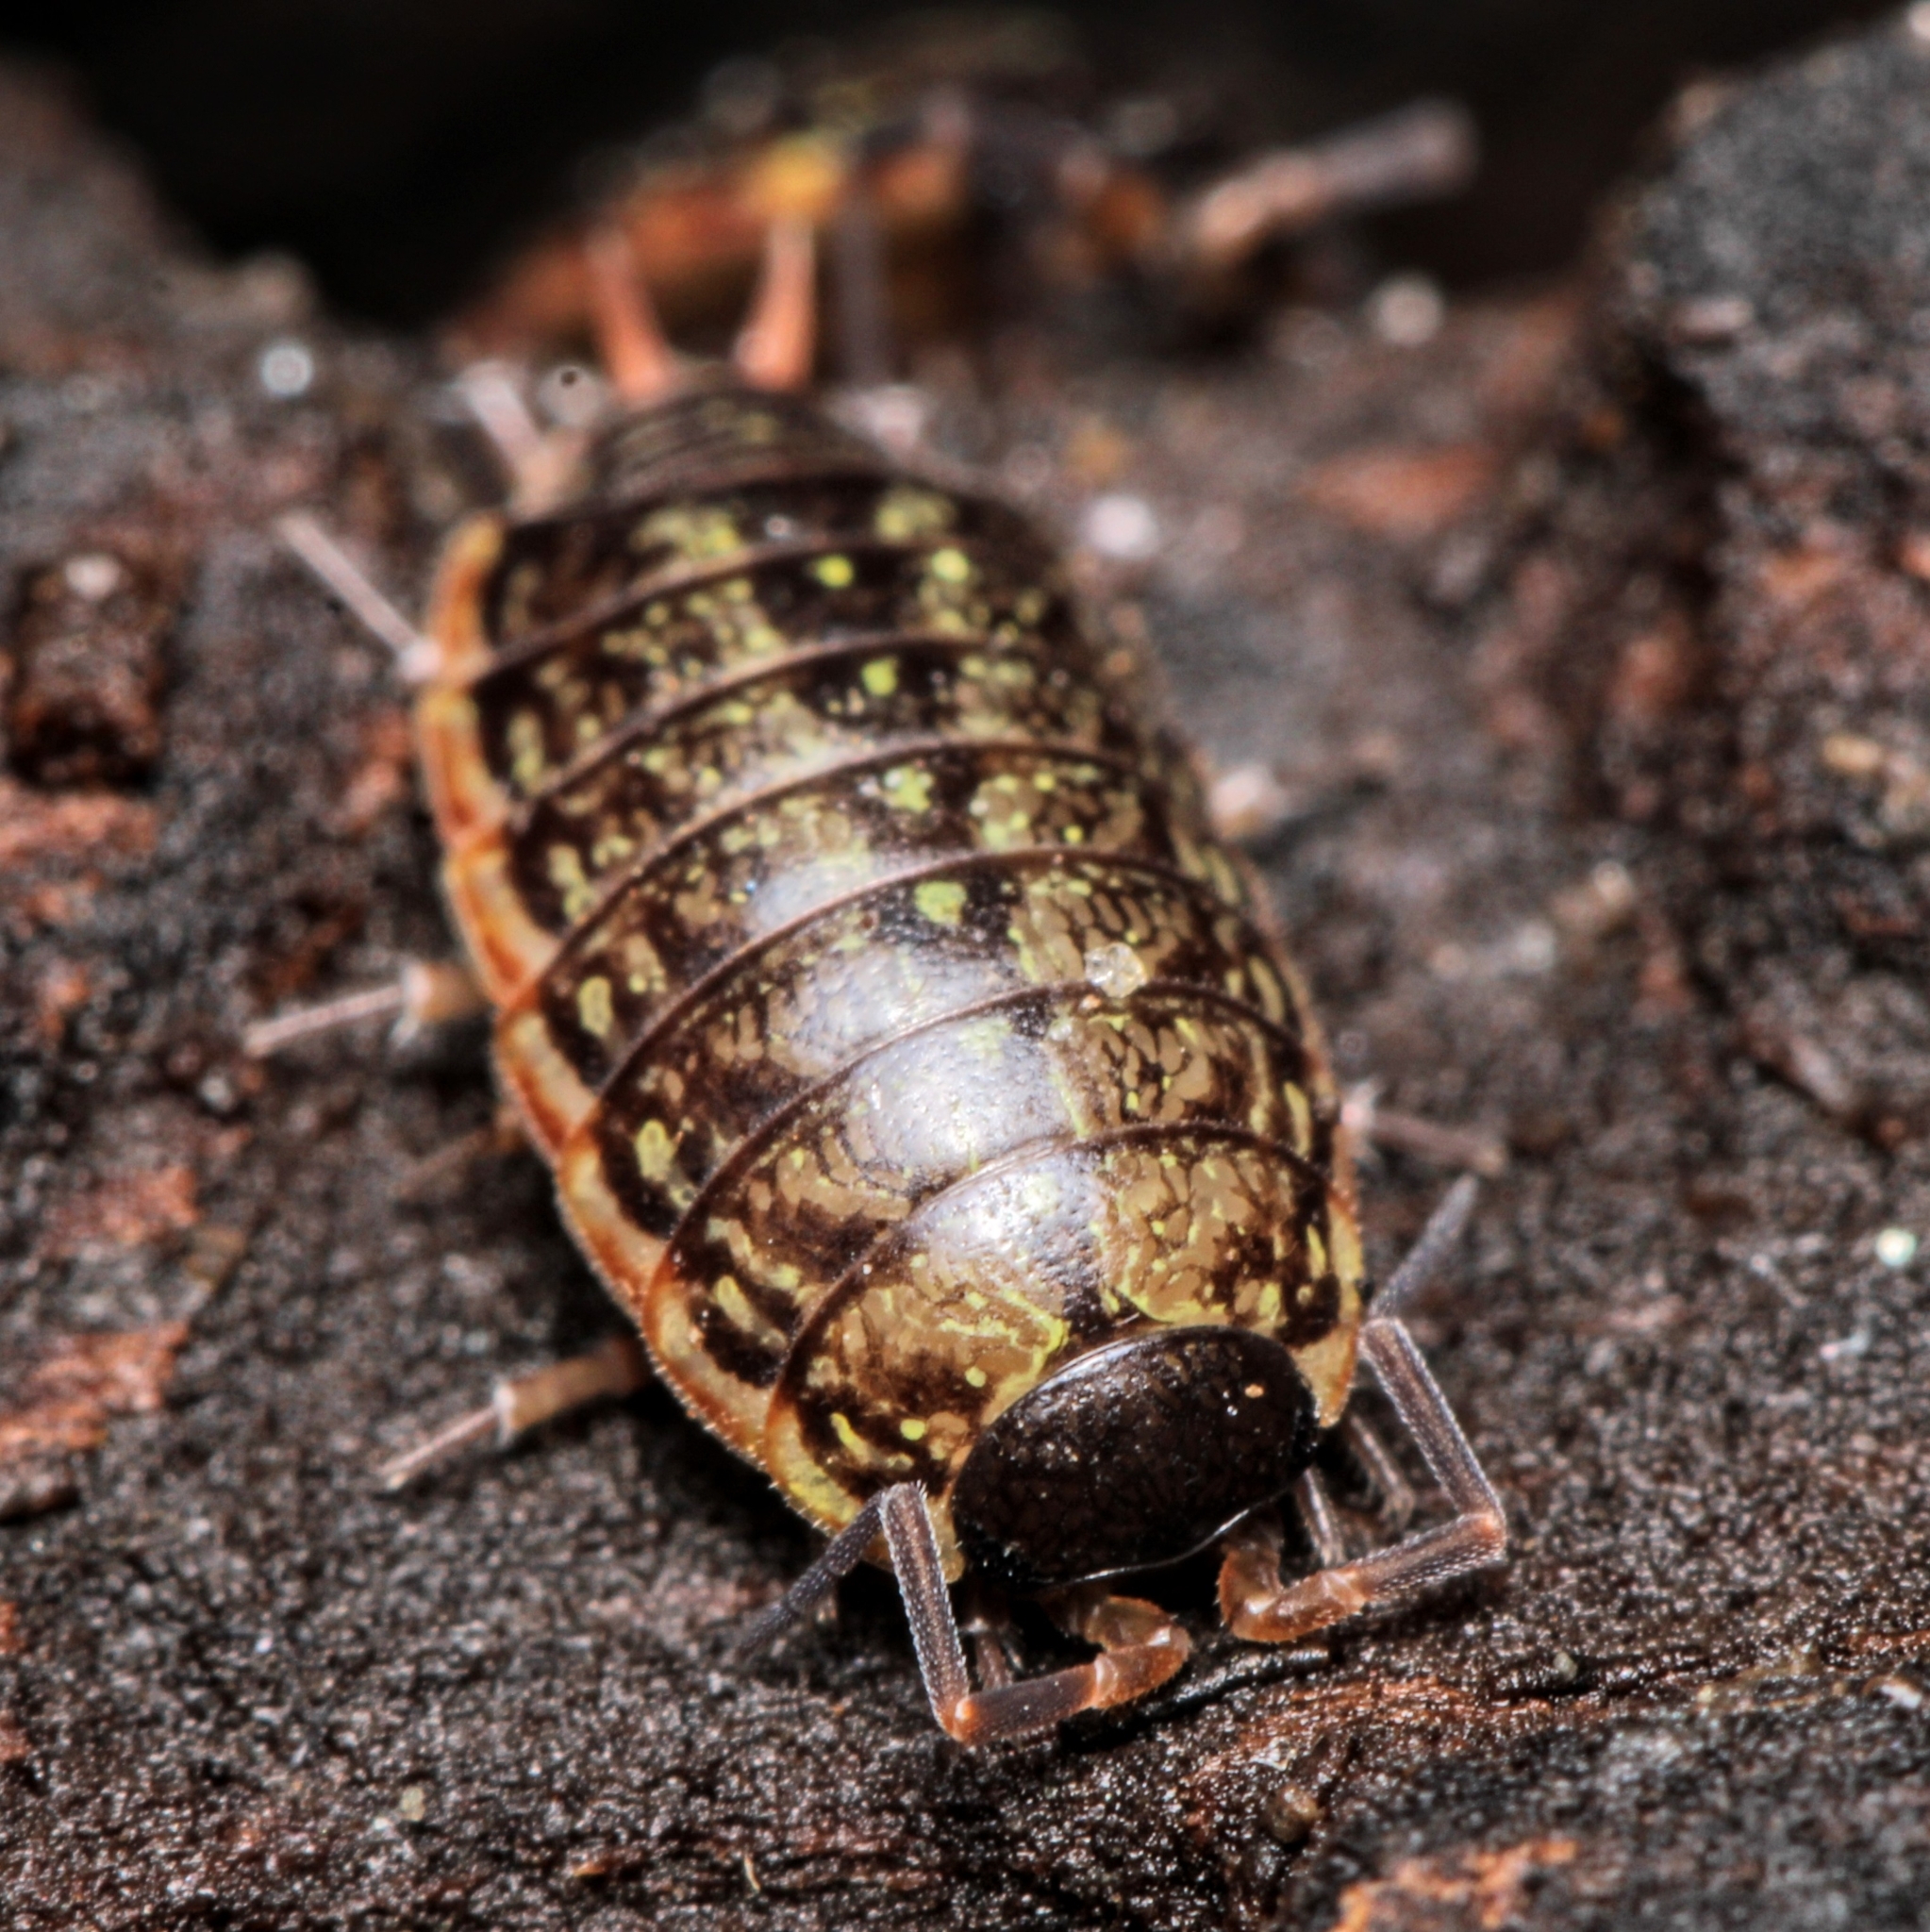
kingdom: Animalia
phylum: Arthropoda
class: Malacostraca
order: Isopoda
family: Philosciidae
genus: Philoscia
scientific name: Philoscia muscorum
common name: Common striped woodlouse
